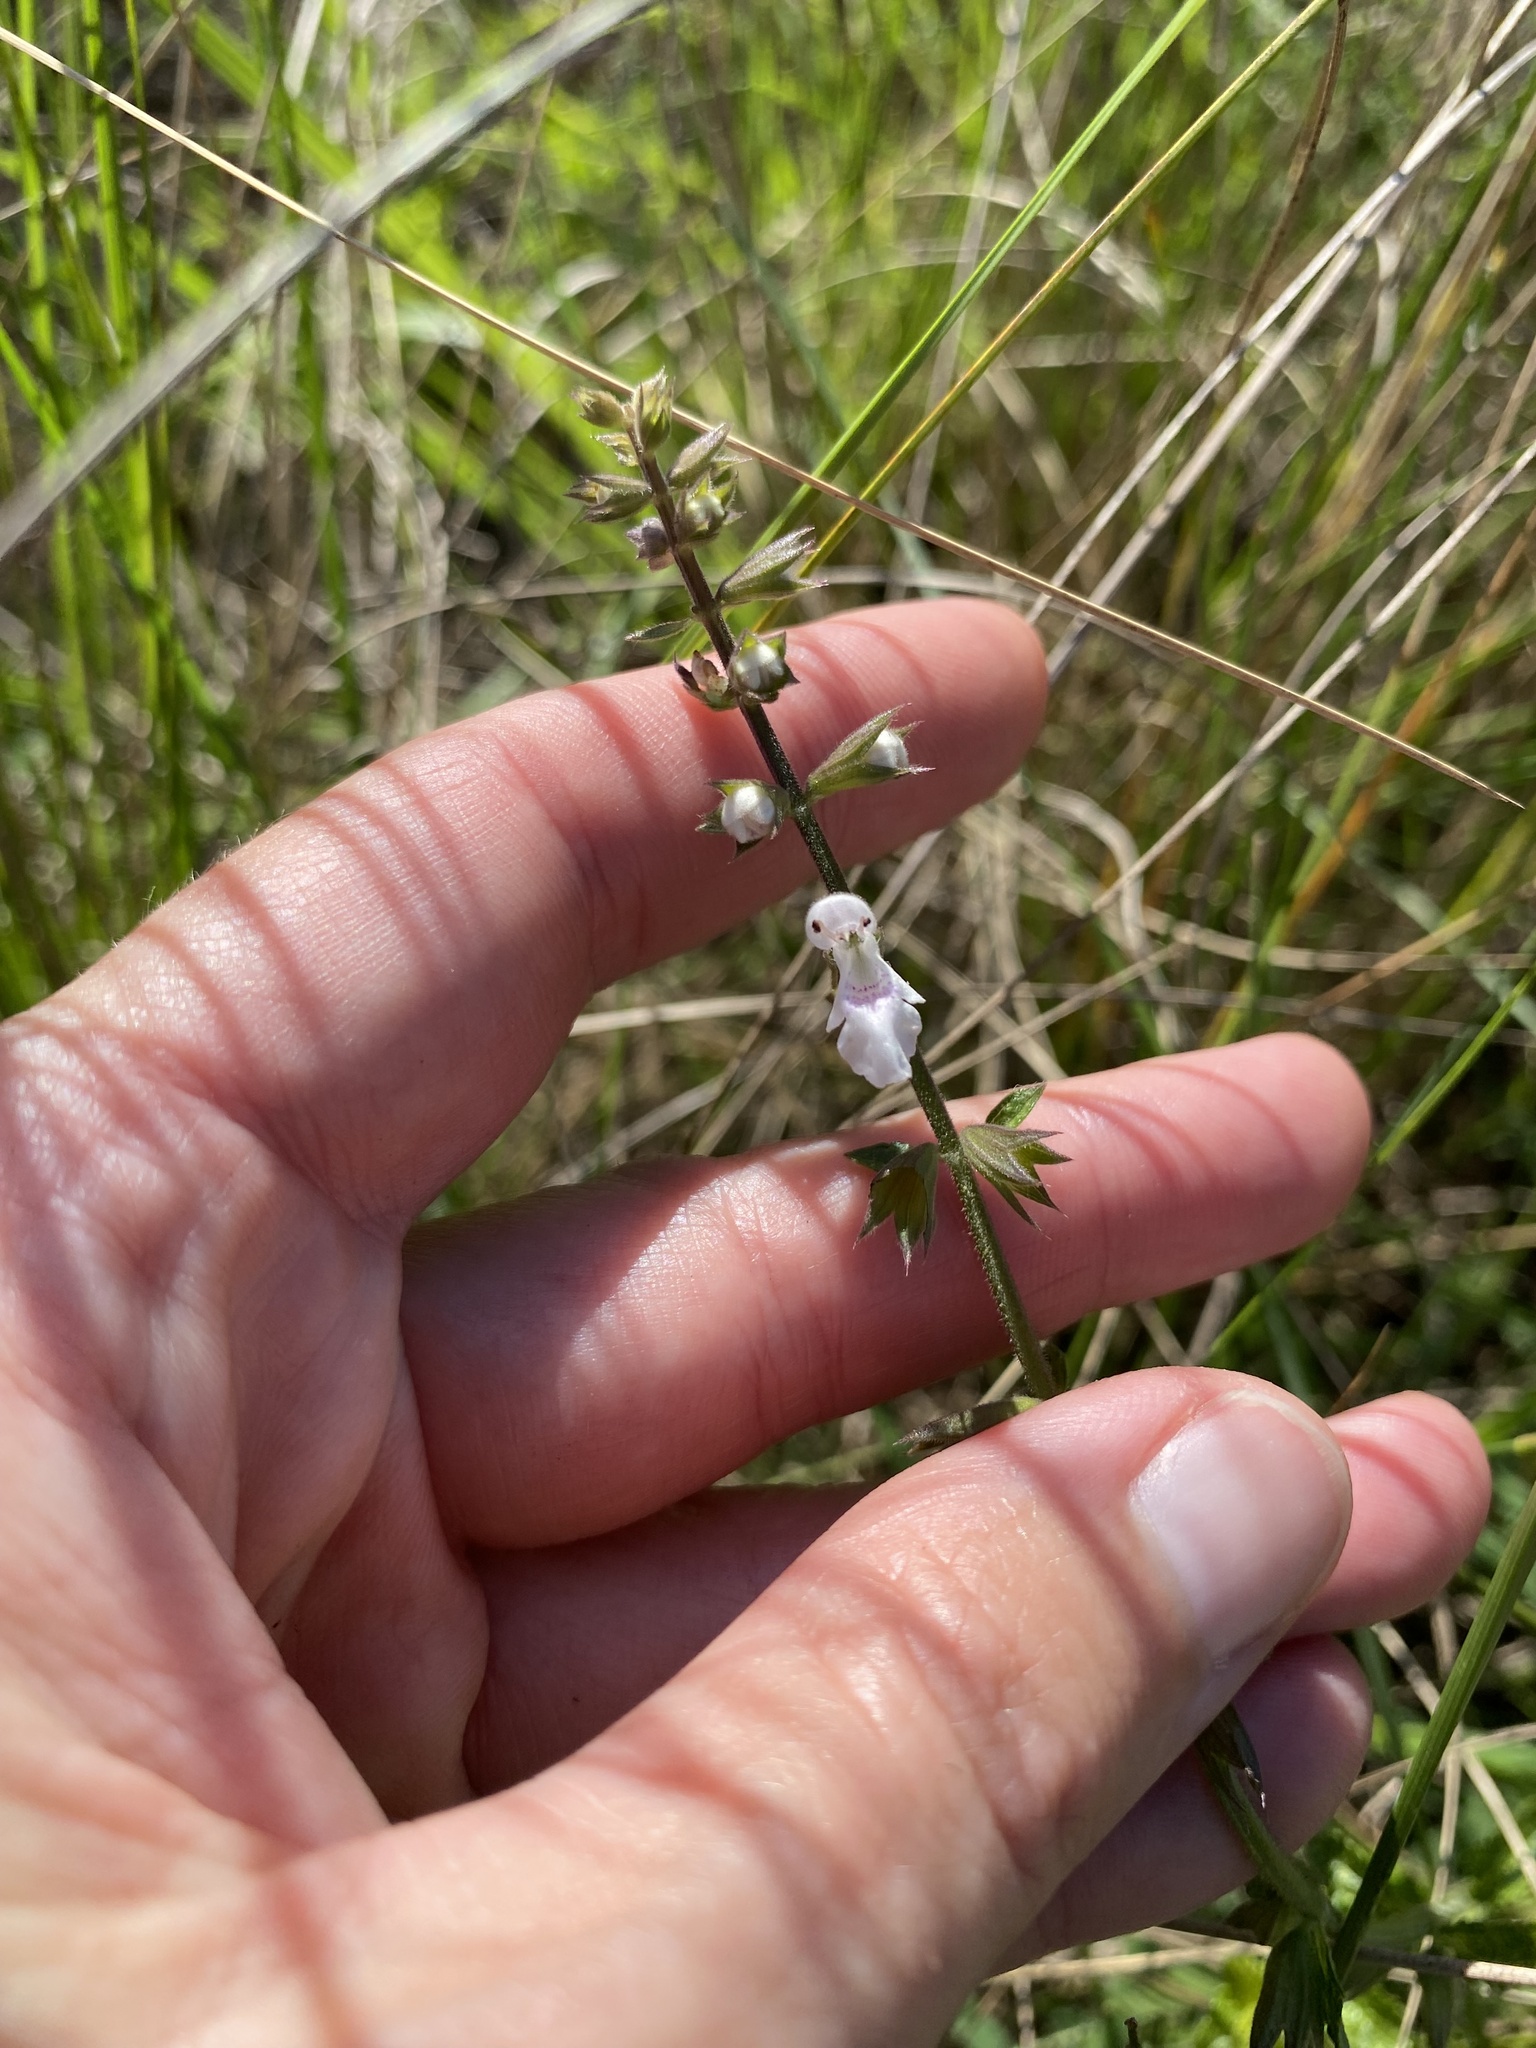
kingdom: Plantae
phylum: Tracheophyta
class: Magnoliopsida
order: Lamiales
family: Lamiaceae
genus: Stachys
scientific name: Stachys natalensis
